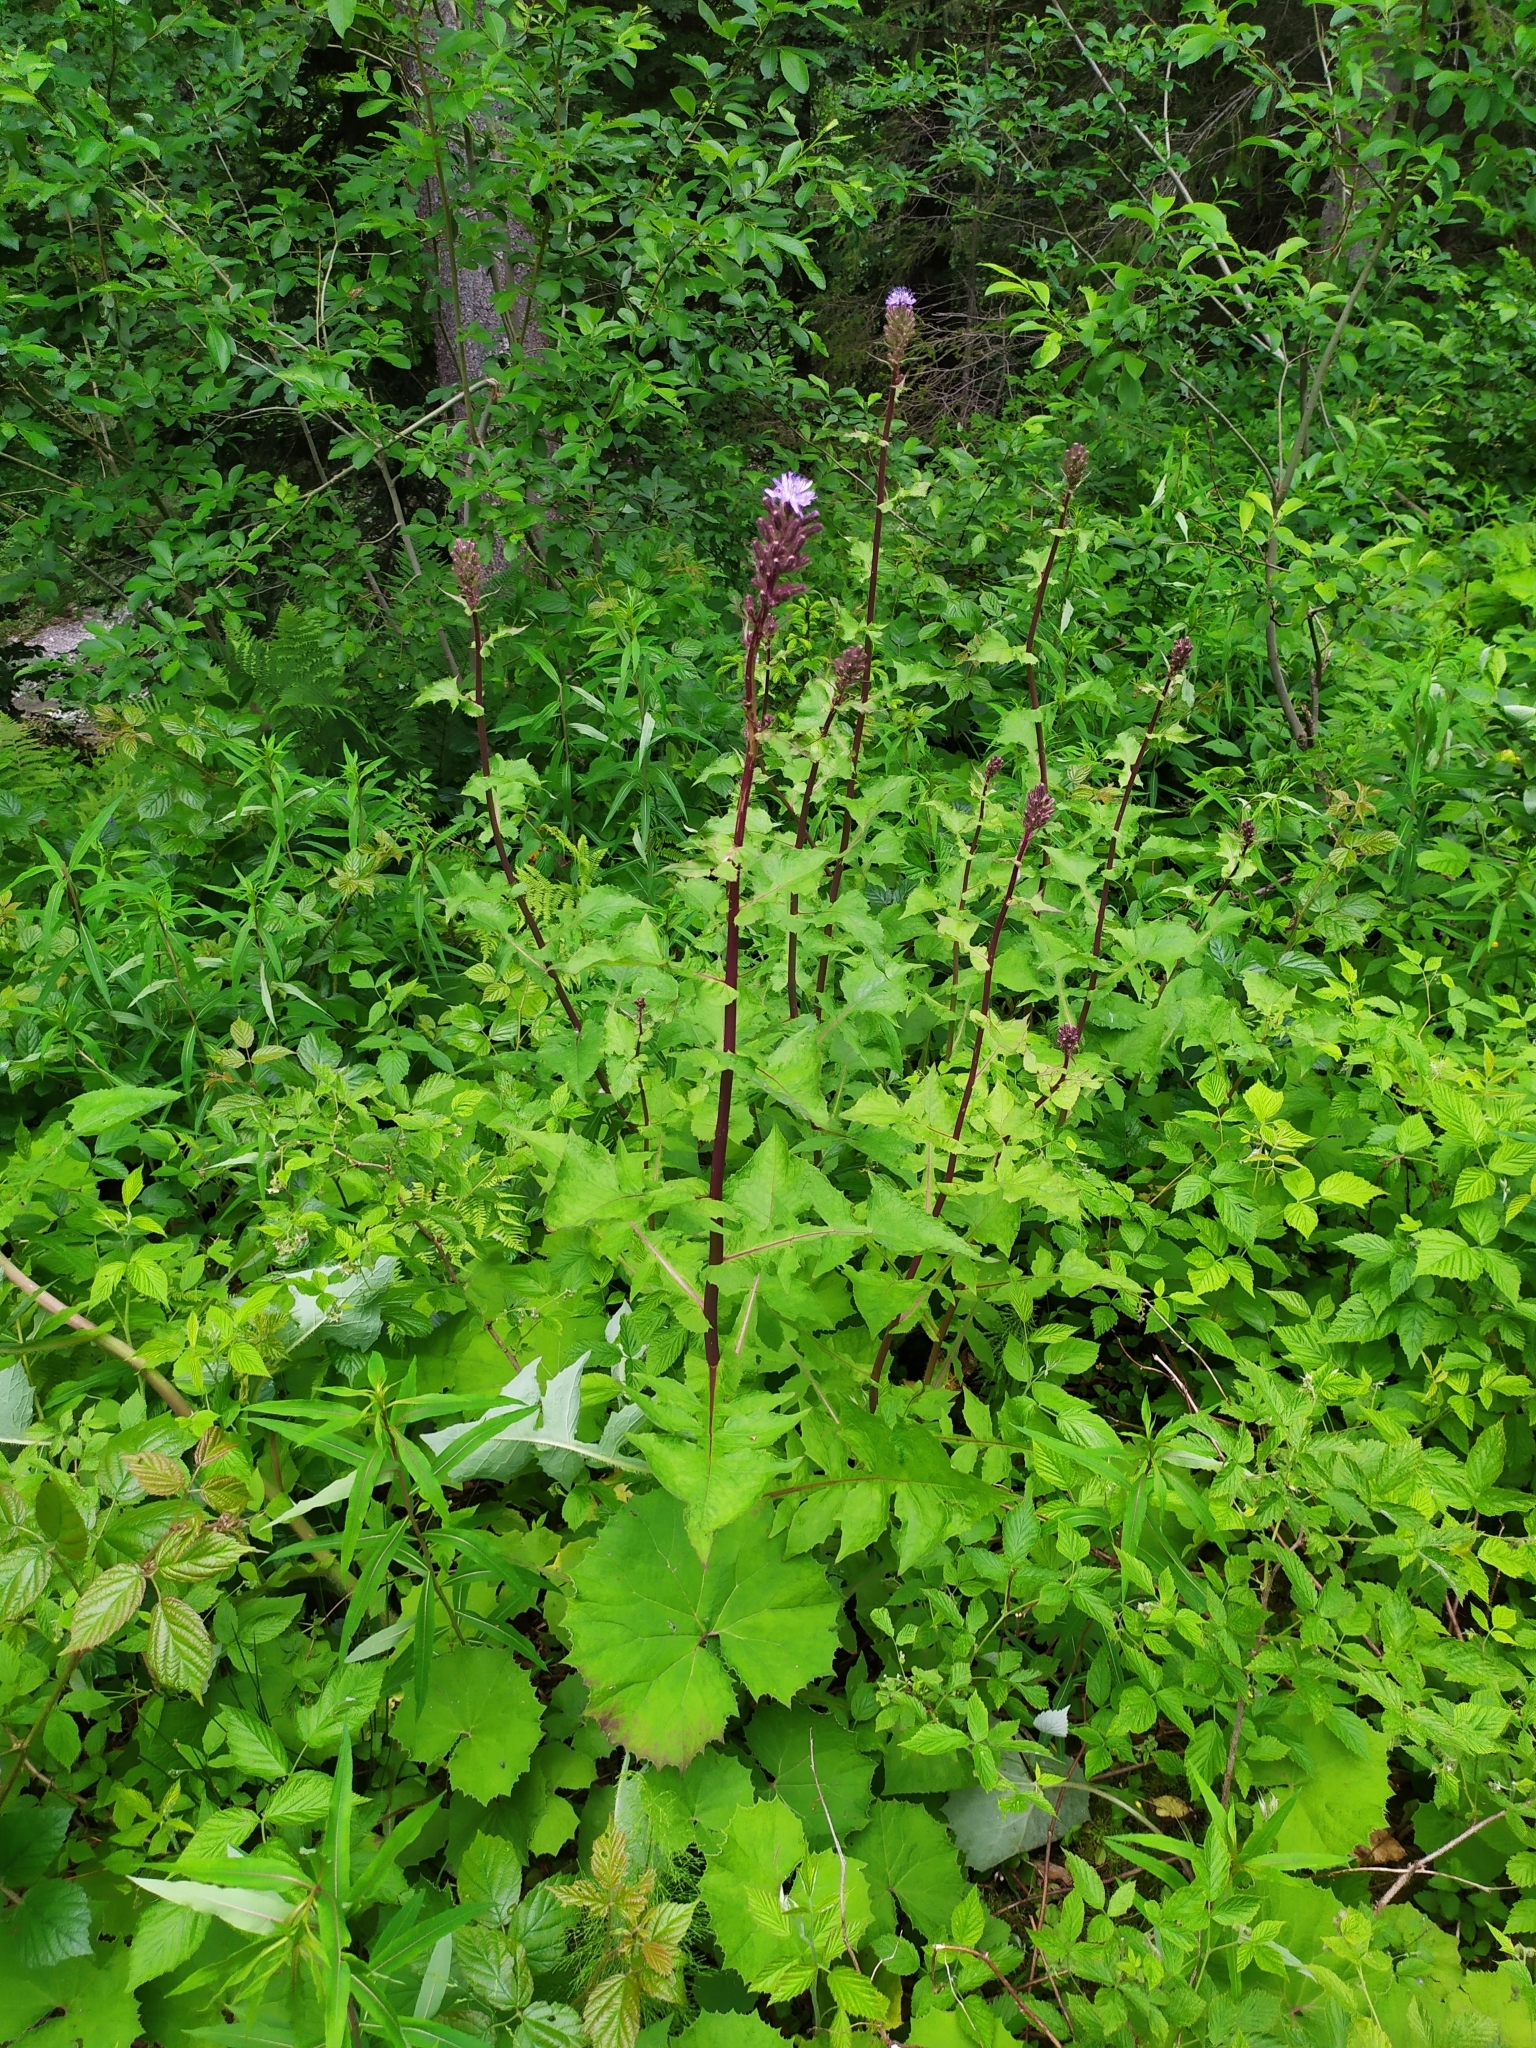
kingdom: Plantae
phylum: Tracheophyta
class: Magnoliopsida
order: Asterales
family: Asteraceae
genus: Cicerbita
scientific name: Cicerbita alpina
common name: Alpine blue-sow-thistle
